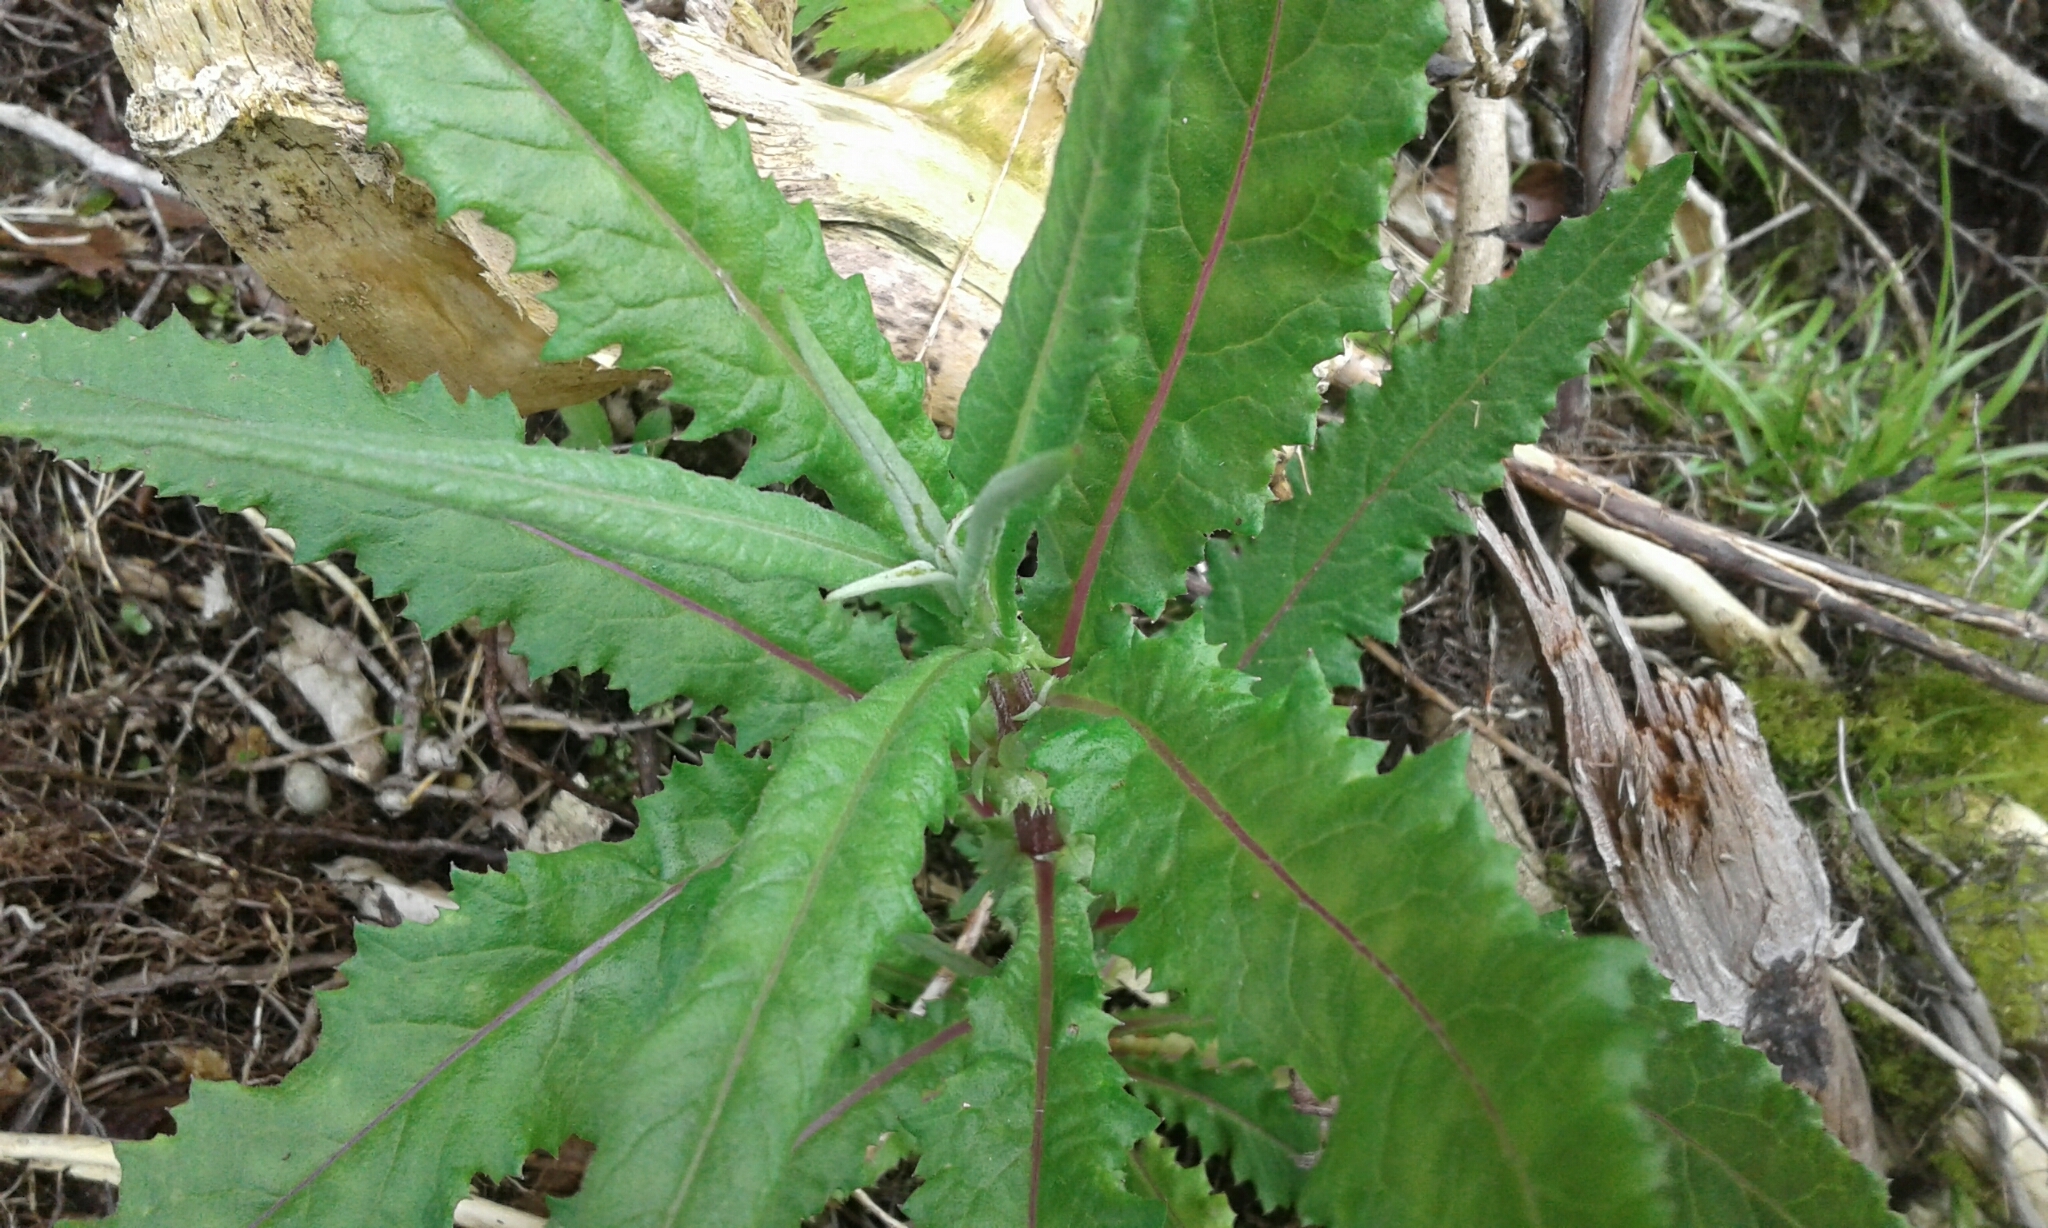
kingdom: Plantae
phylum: Tracheophyta
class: Magnoliopsida
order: Asterales
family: Asteraceae
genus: Senecio
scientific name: Senecio minimus
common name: Toothed fireweed
